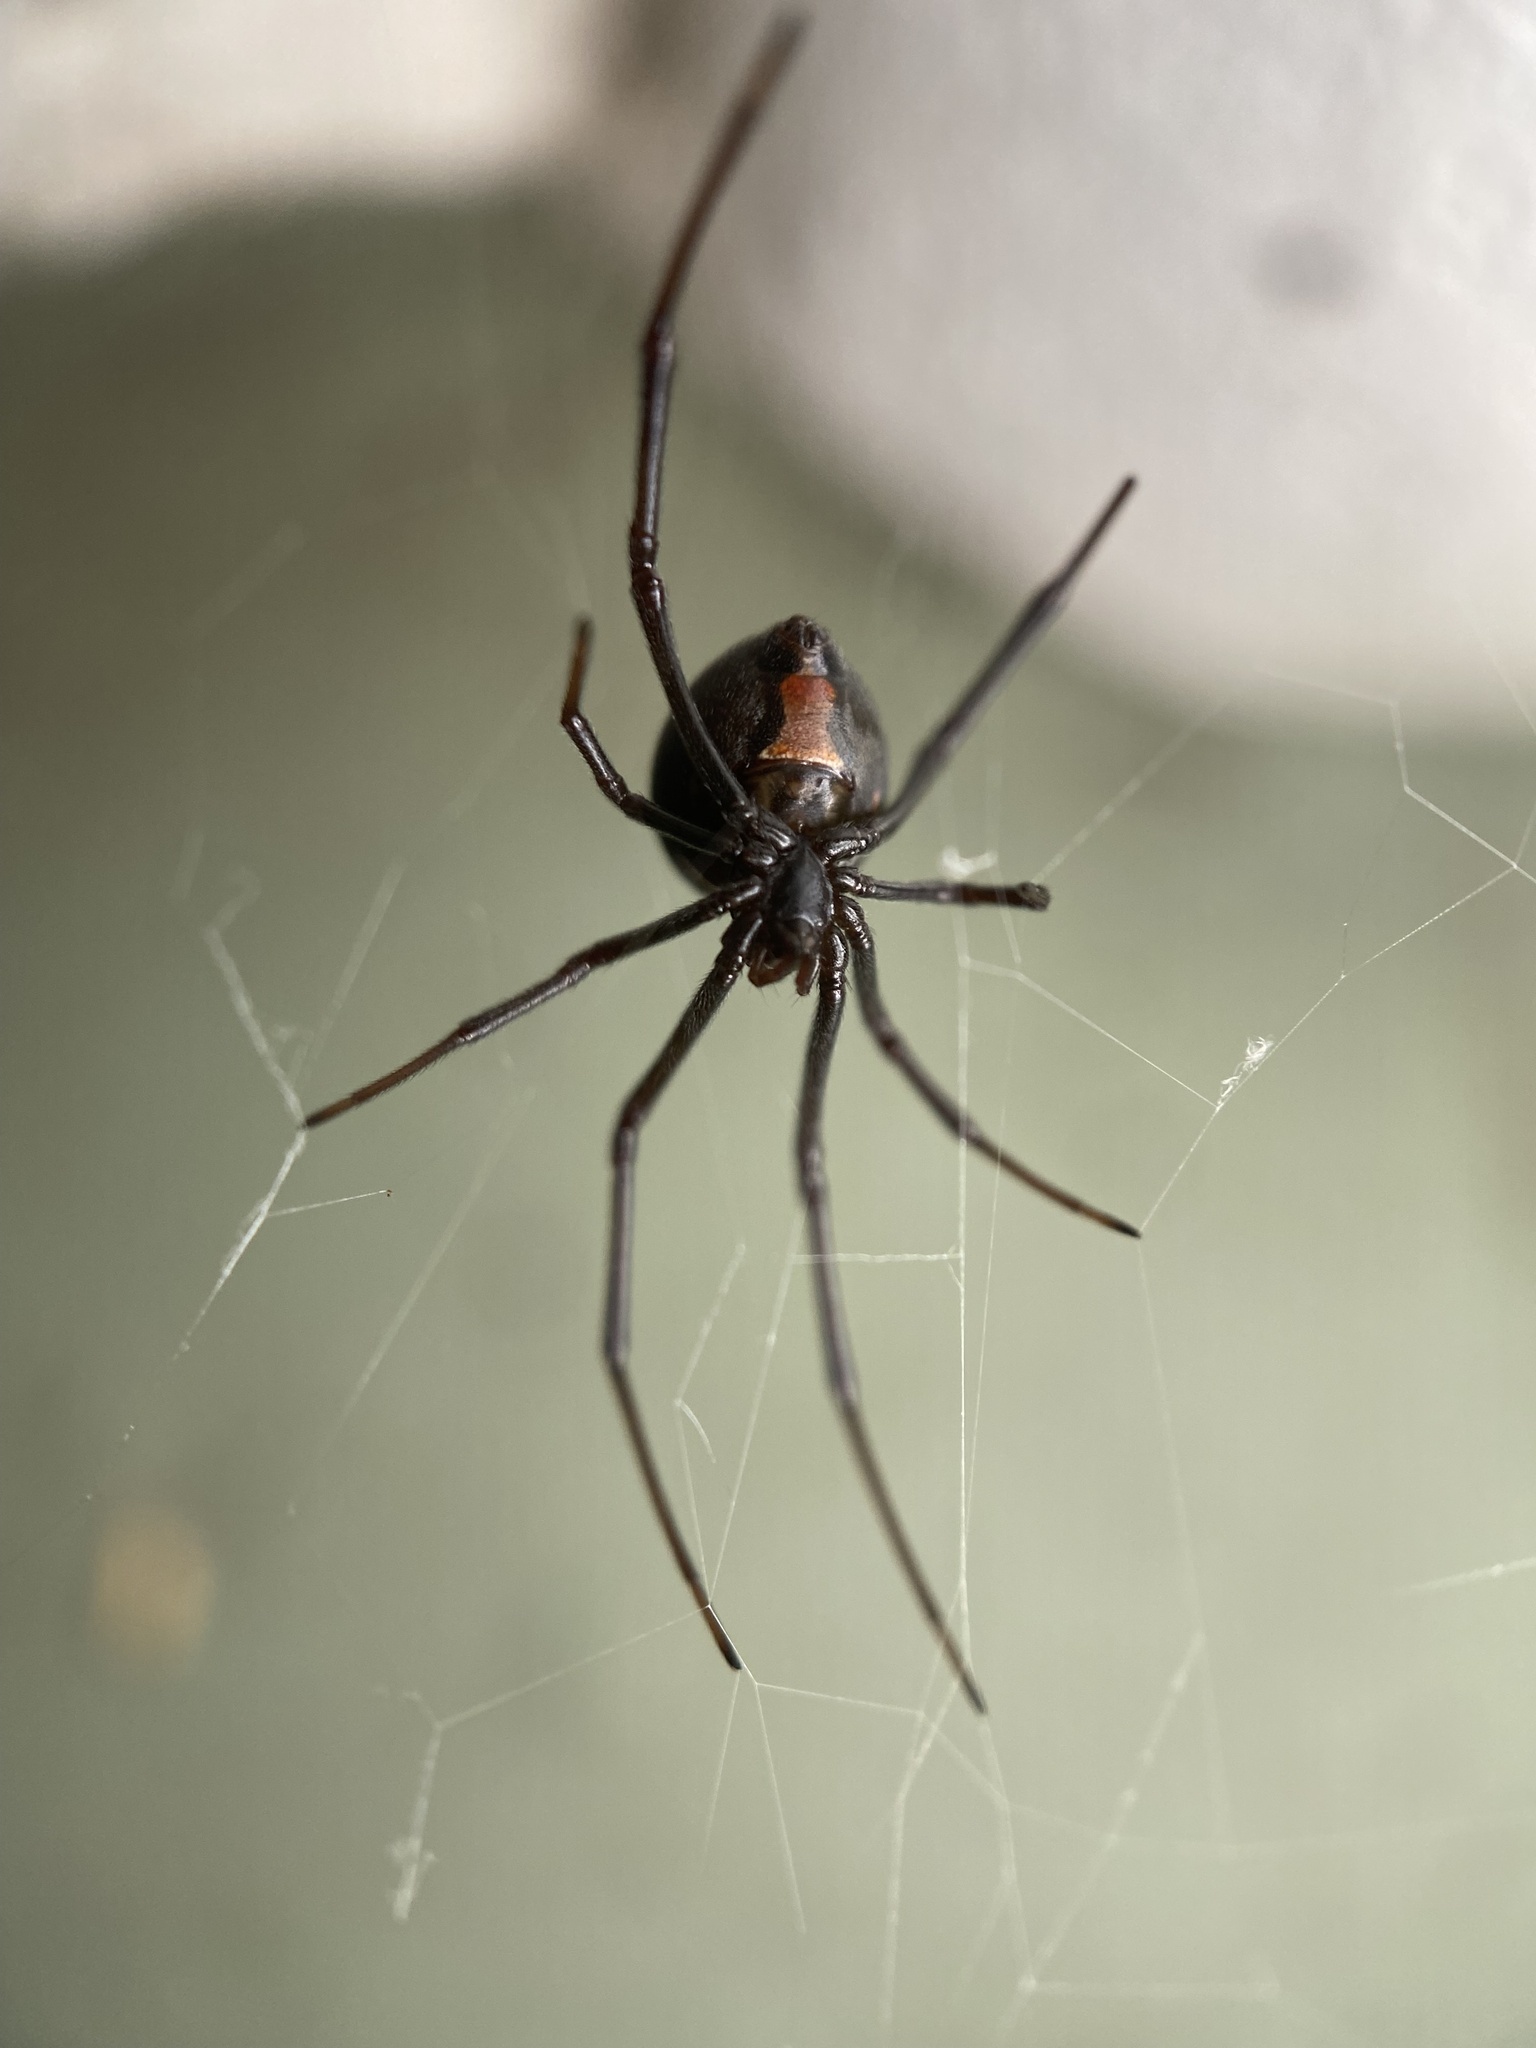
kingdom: Animalia
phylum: Arthropoda
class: Arachnida
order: Araneae
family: Theridiidae
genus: Latrodectus
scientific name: Latrodectus hasselti
